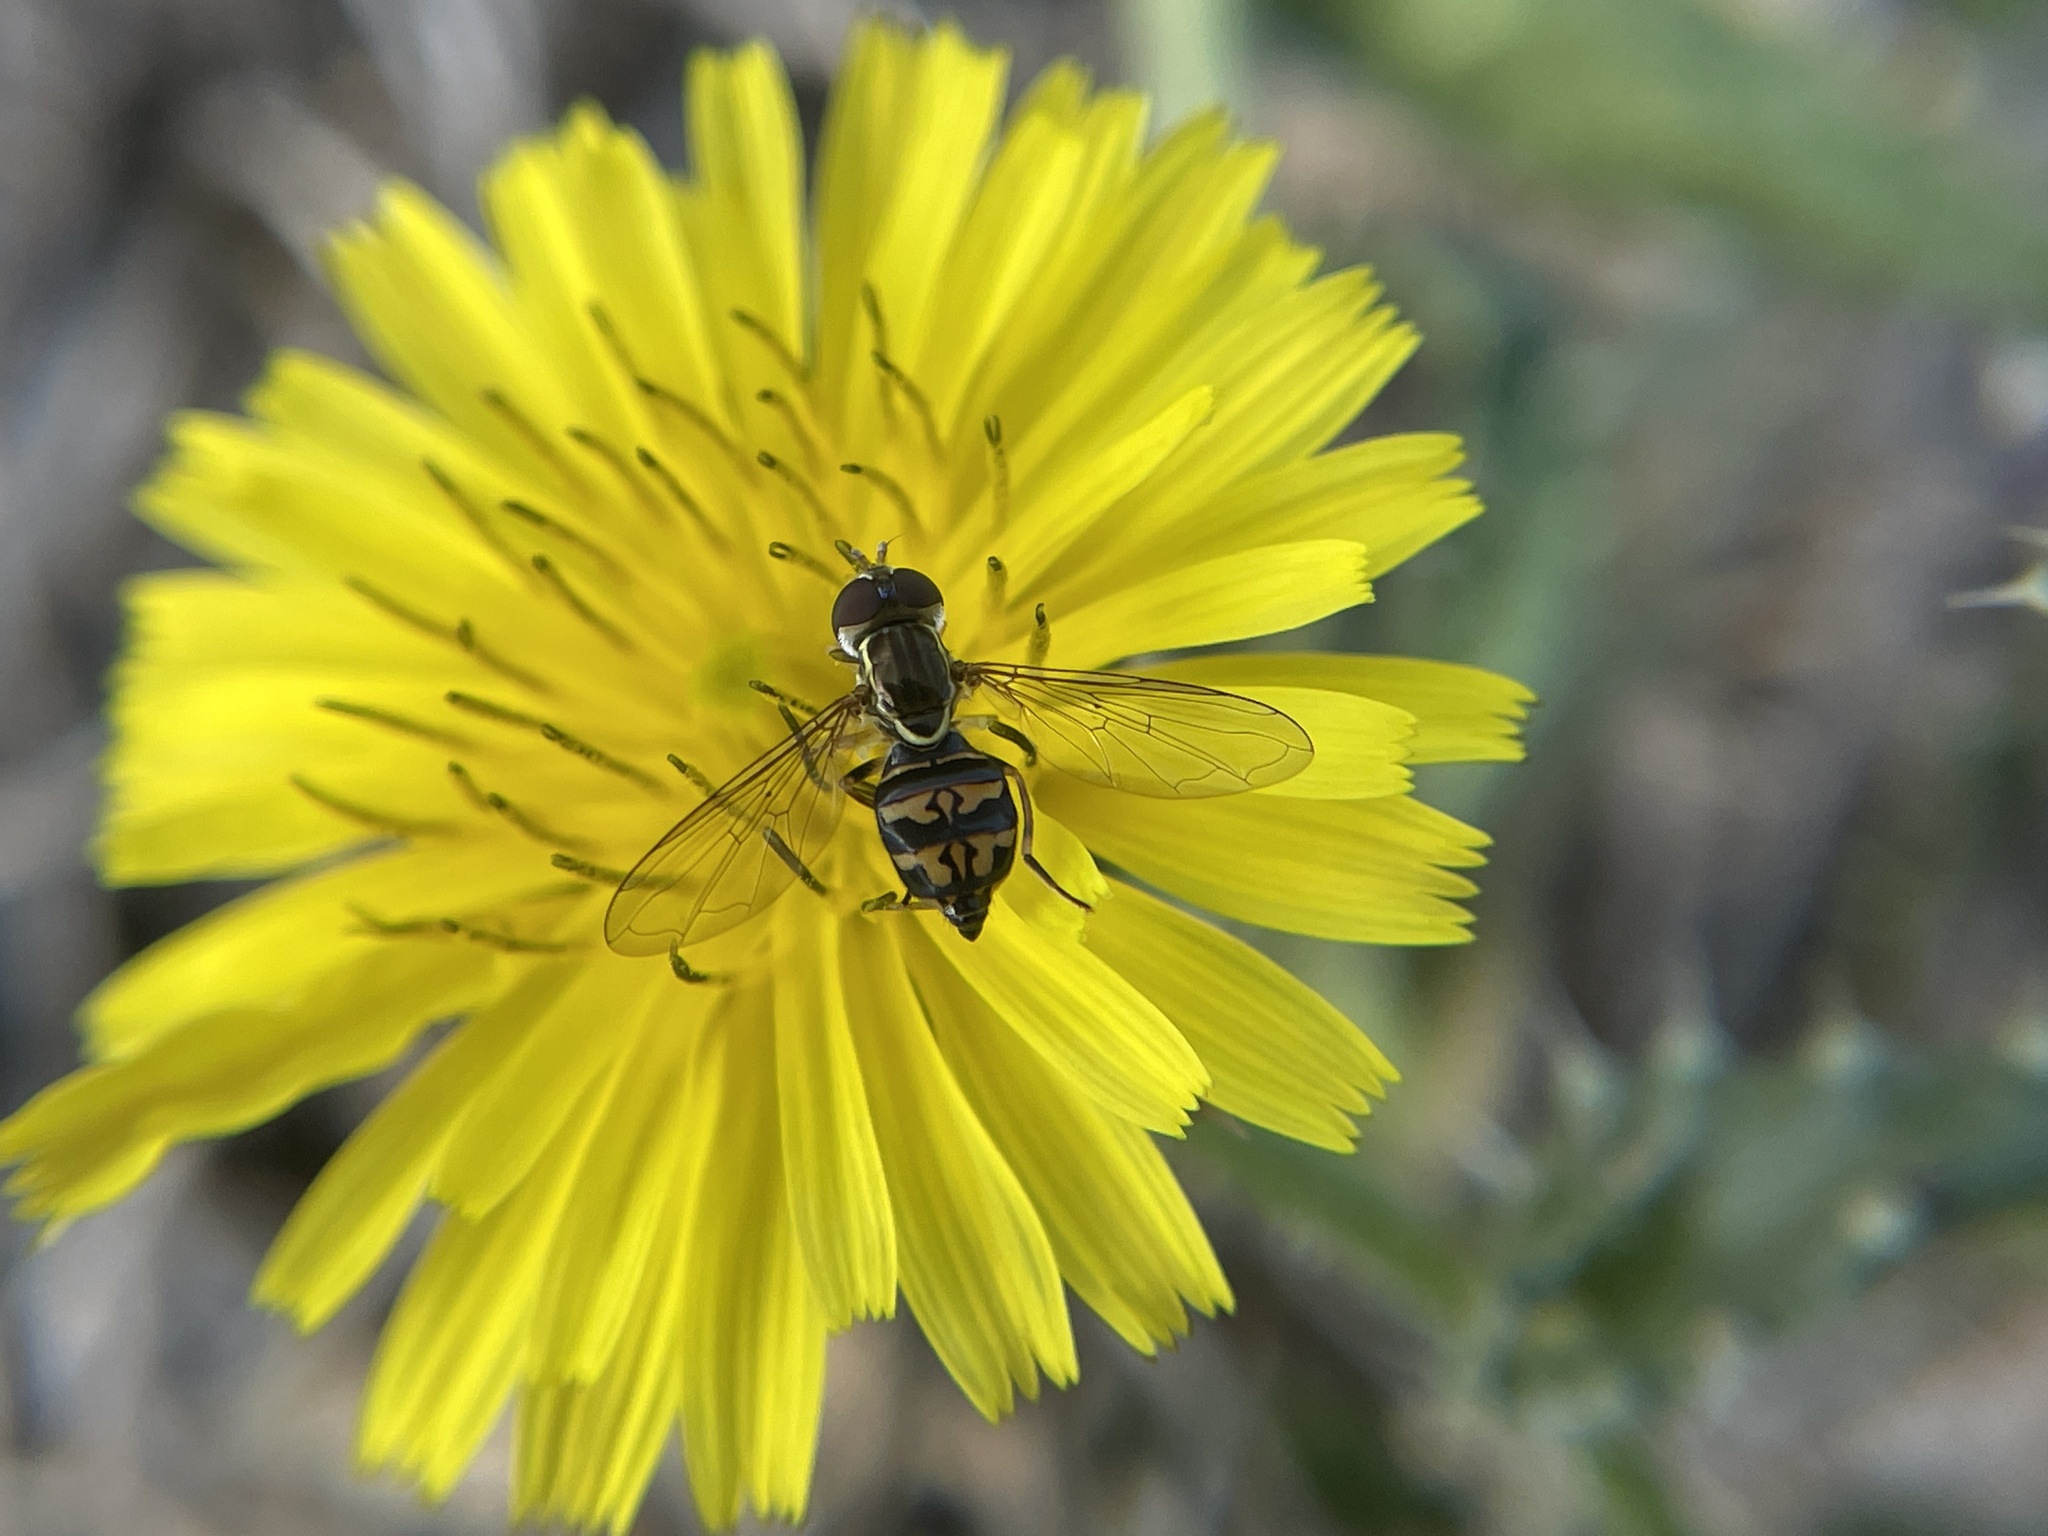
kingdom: Animalia
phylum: Arthropoda
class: Insecta
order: Diptera
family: Syrphidae
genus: Toxomerus
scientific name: Toxomerus occidentalis
